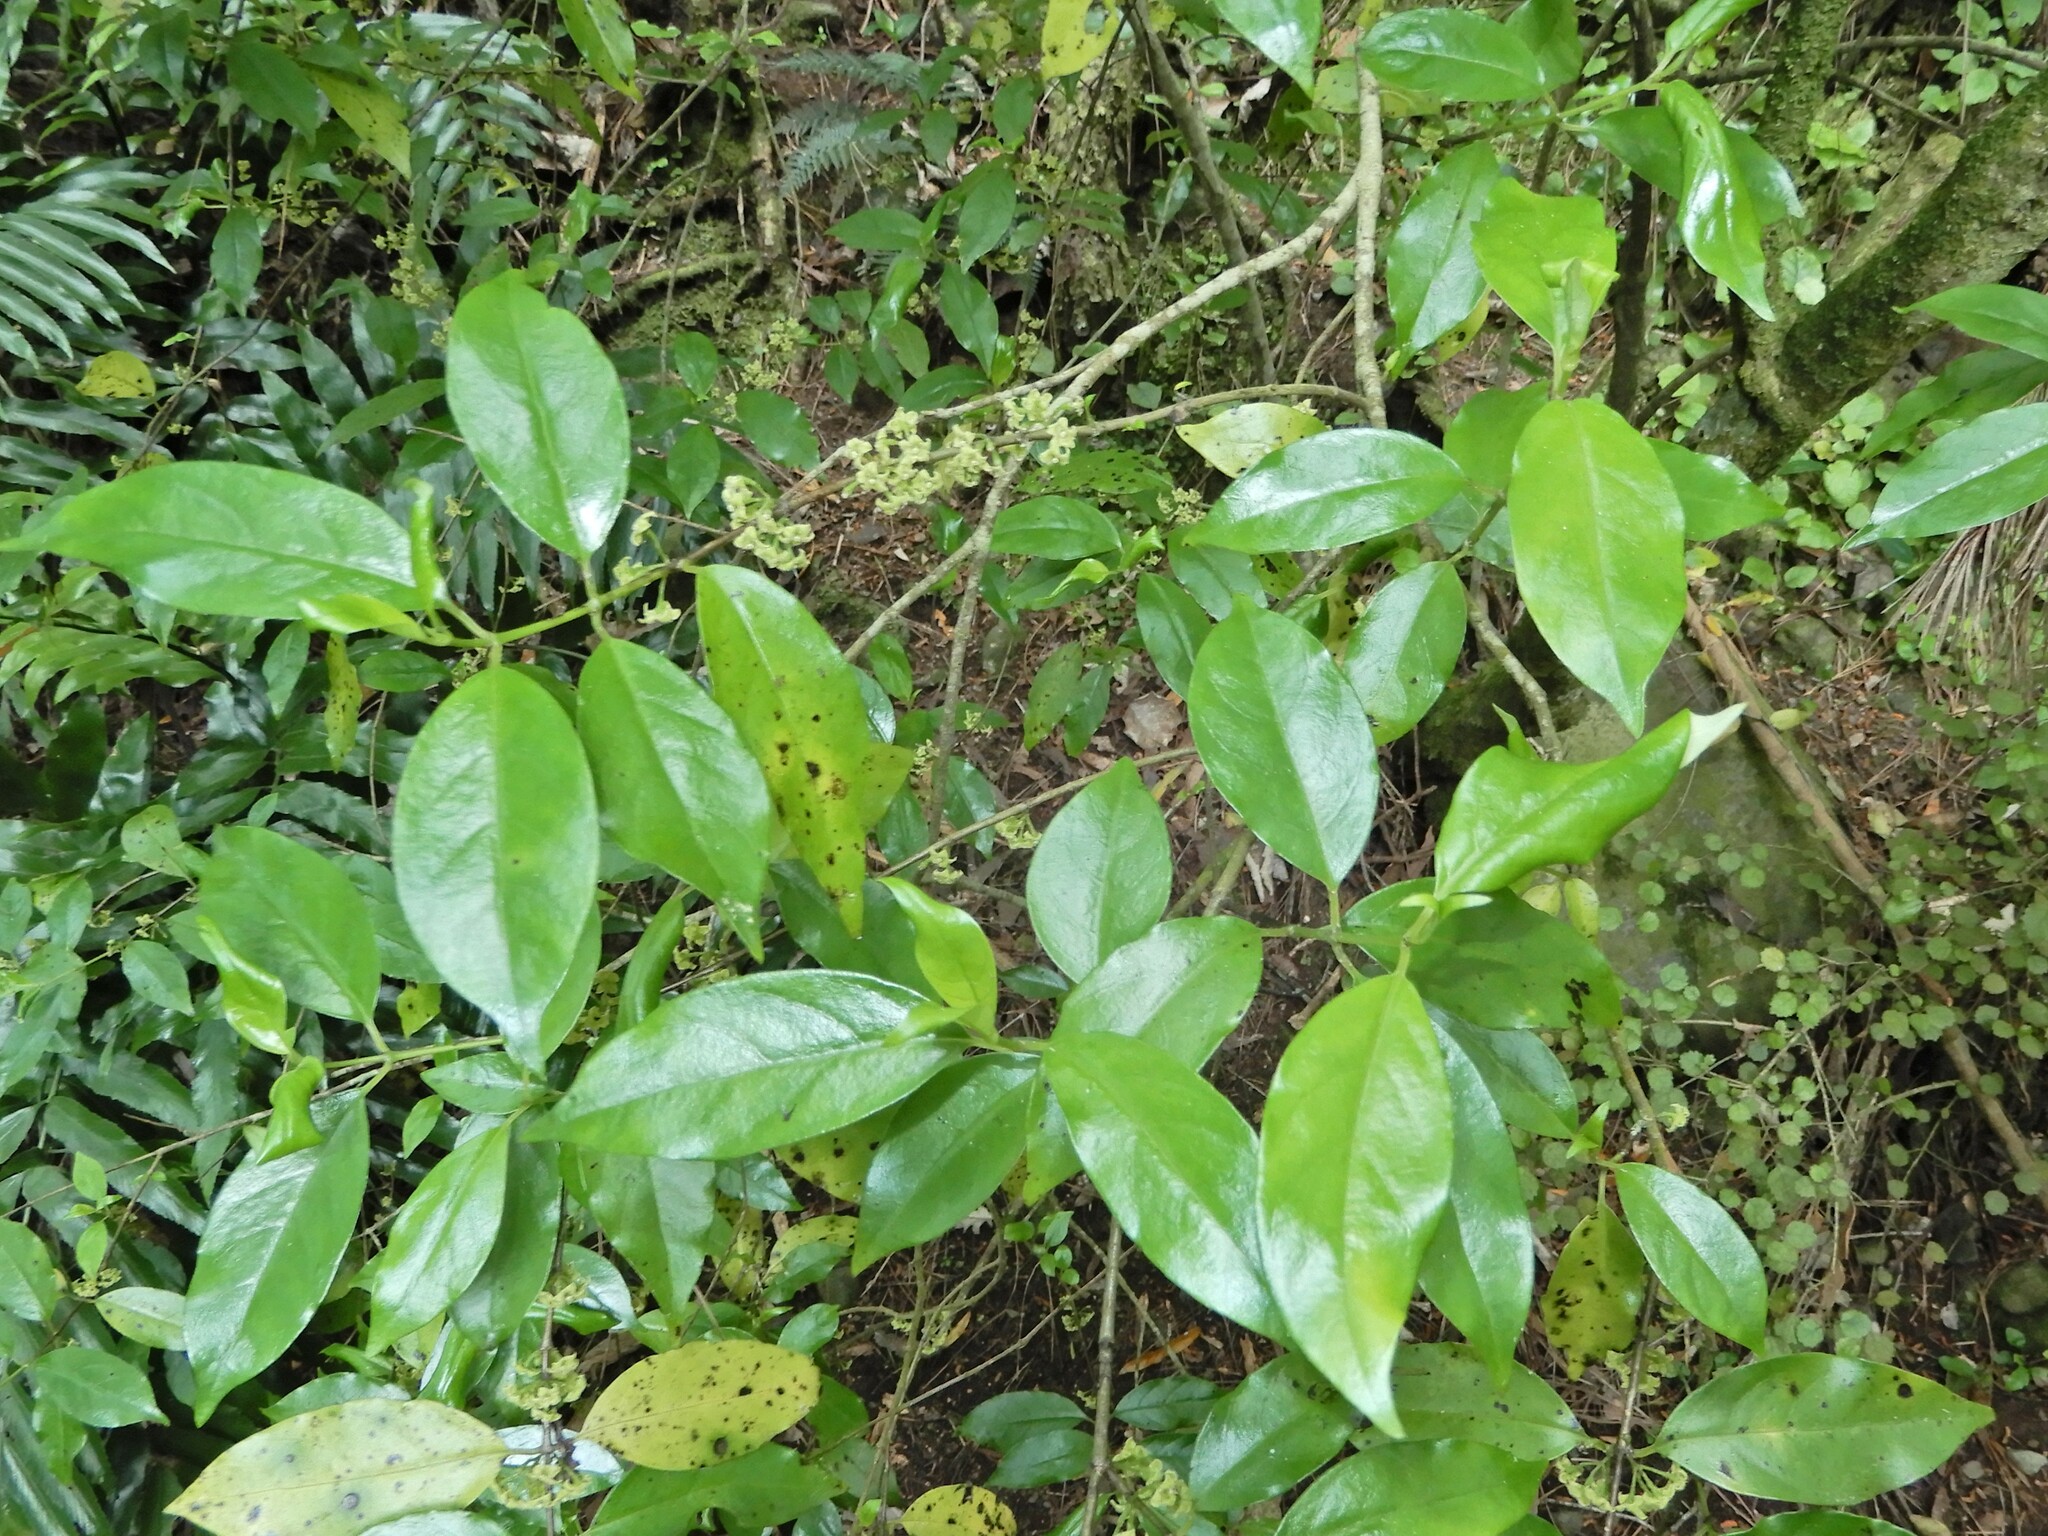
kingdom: Plantae
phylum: Tracheophyta
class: Magnoliopsida
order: Gentianales
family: Loganiaceae
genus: Geniostoma
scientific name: Geniostoma ligustrifolium
